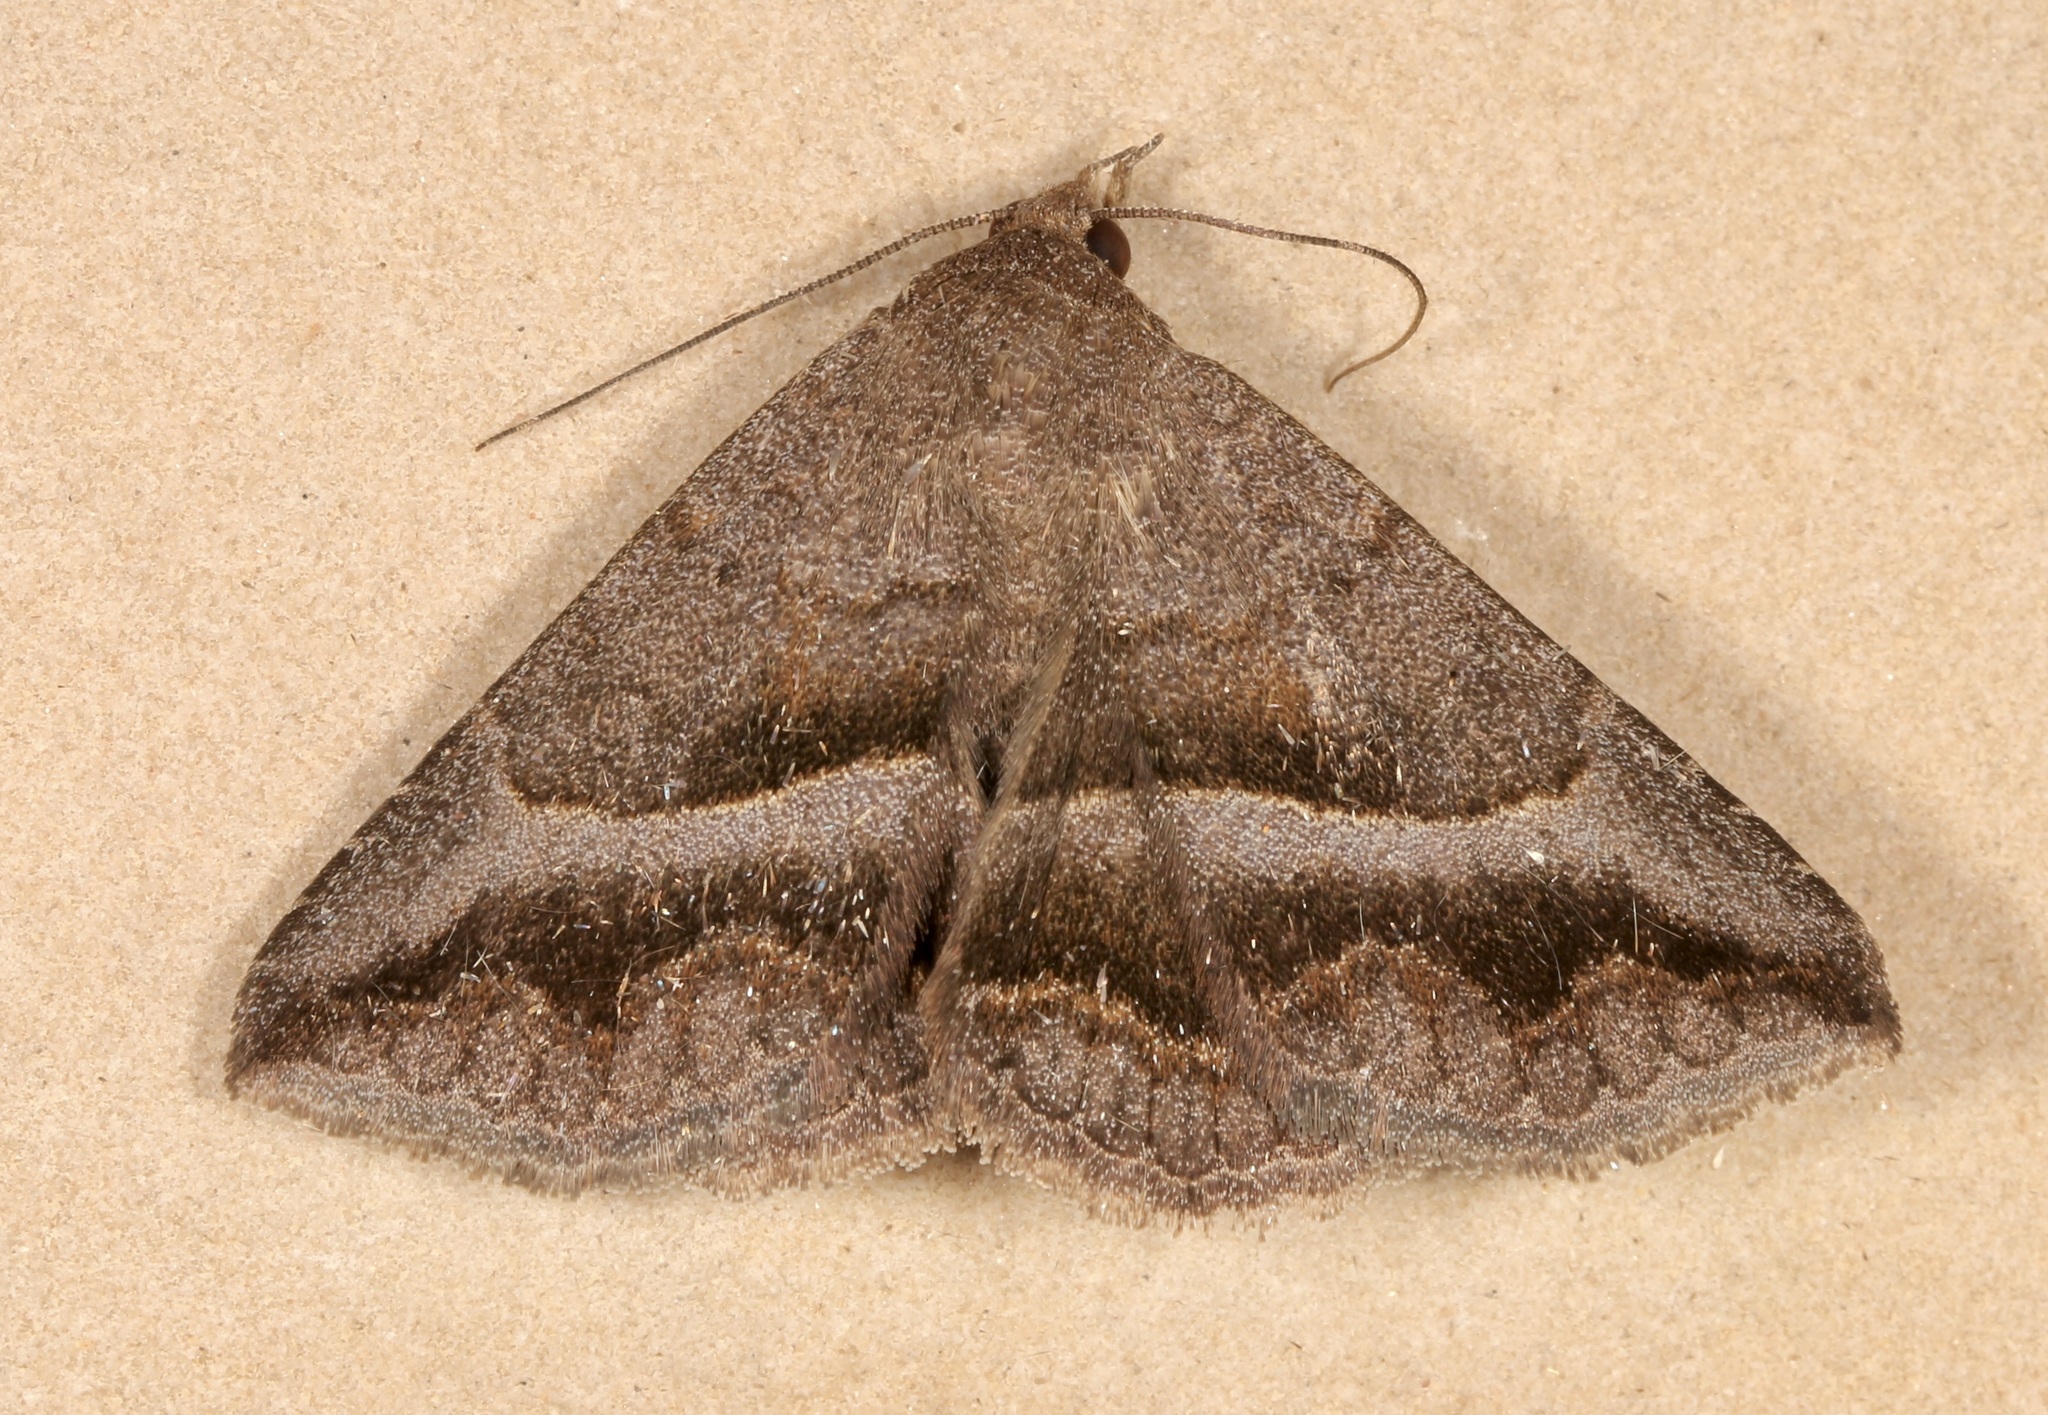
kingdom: Animalia
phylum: Arthropoda
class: Insecta
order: Lepidoptera
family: Erebidae
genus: Lesmone
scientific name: Lesmone griseipennis
